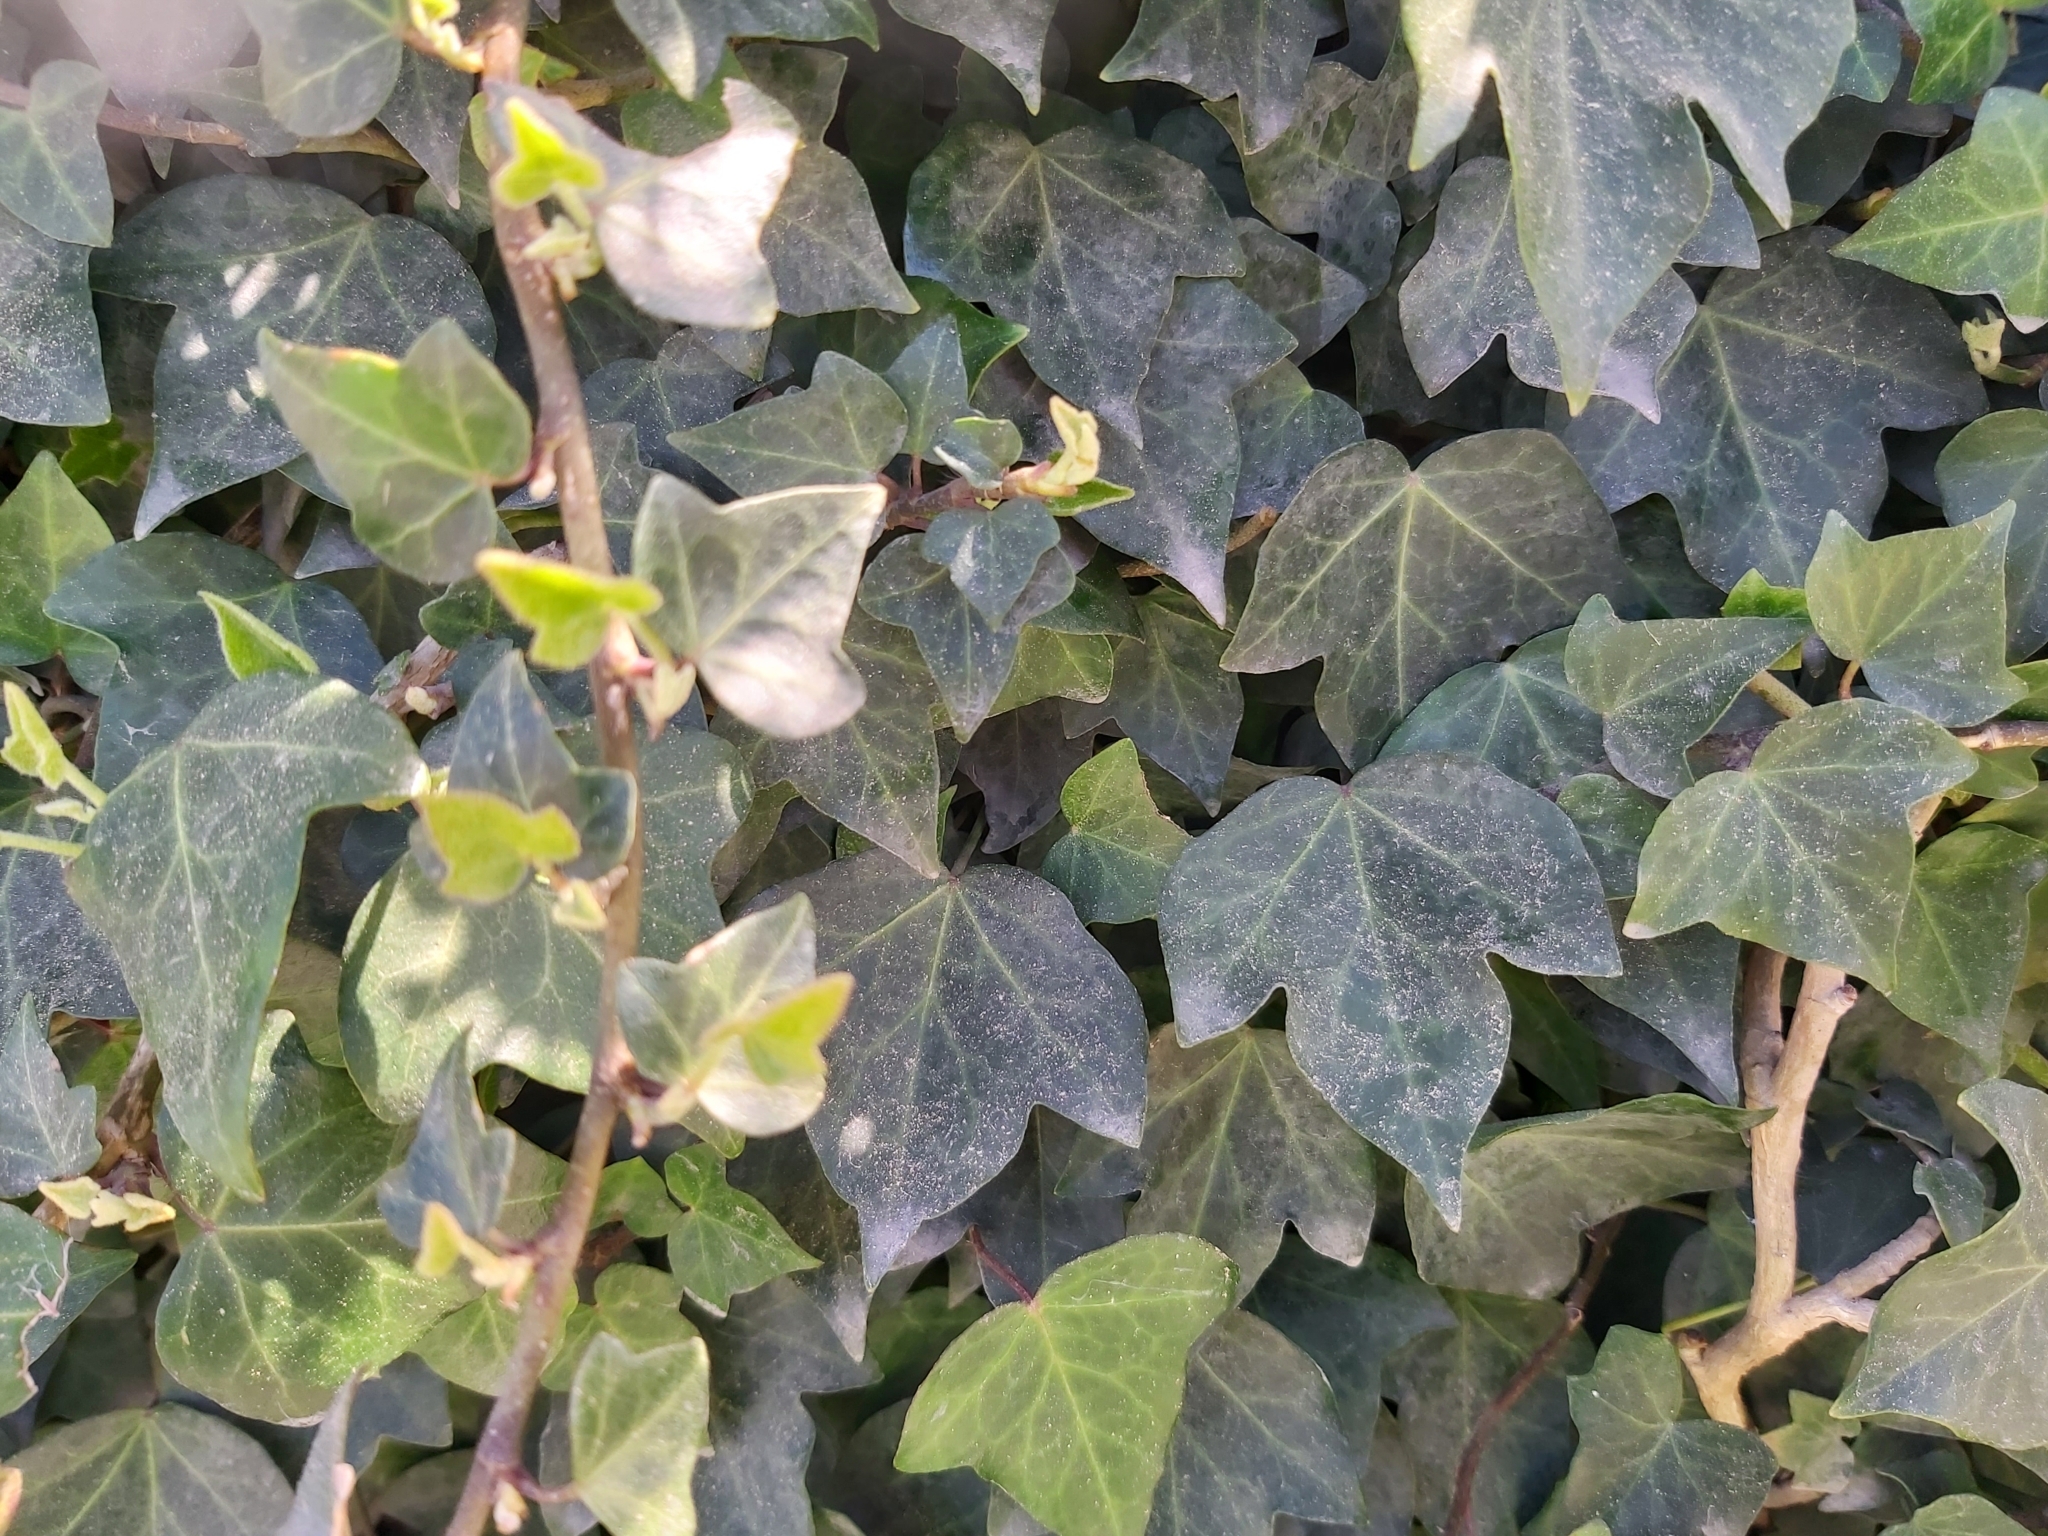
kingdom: Plantae
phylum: Tracheophyta
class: Magnoliopsida
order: Apiales
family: Araliaceae
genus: Hedera
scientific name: Hedera helix
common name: Ivy
